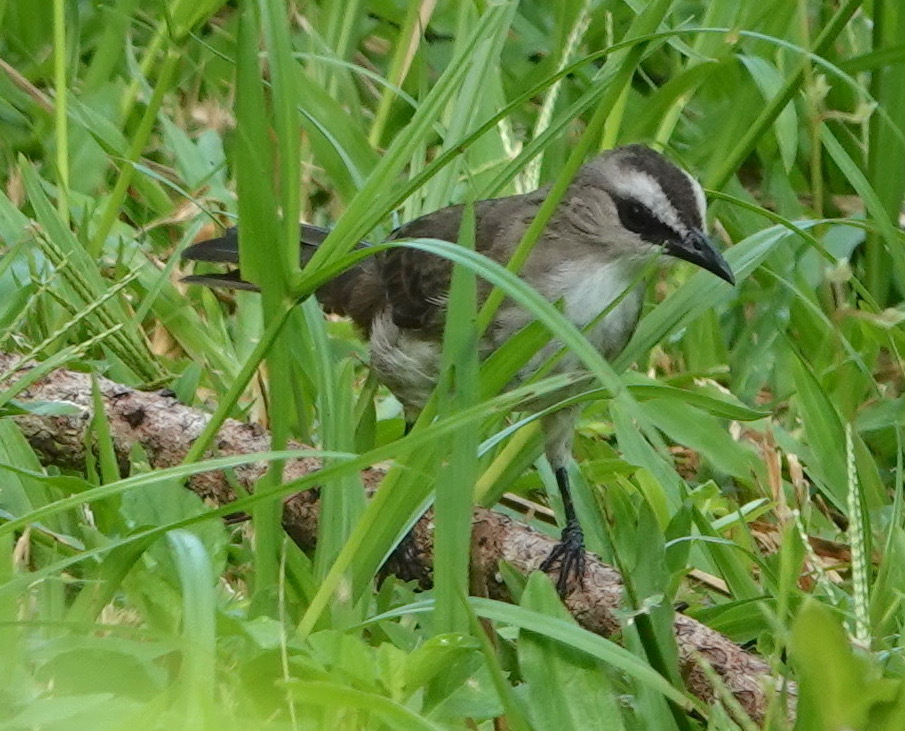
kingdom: Animalia
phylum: Chordata
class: Aves
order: Passeriformes
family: Pycnonotidae
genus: Pycnonotus
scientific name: Pycnonotus goiavier
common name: Yellow-vented bulbul
